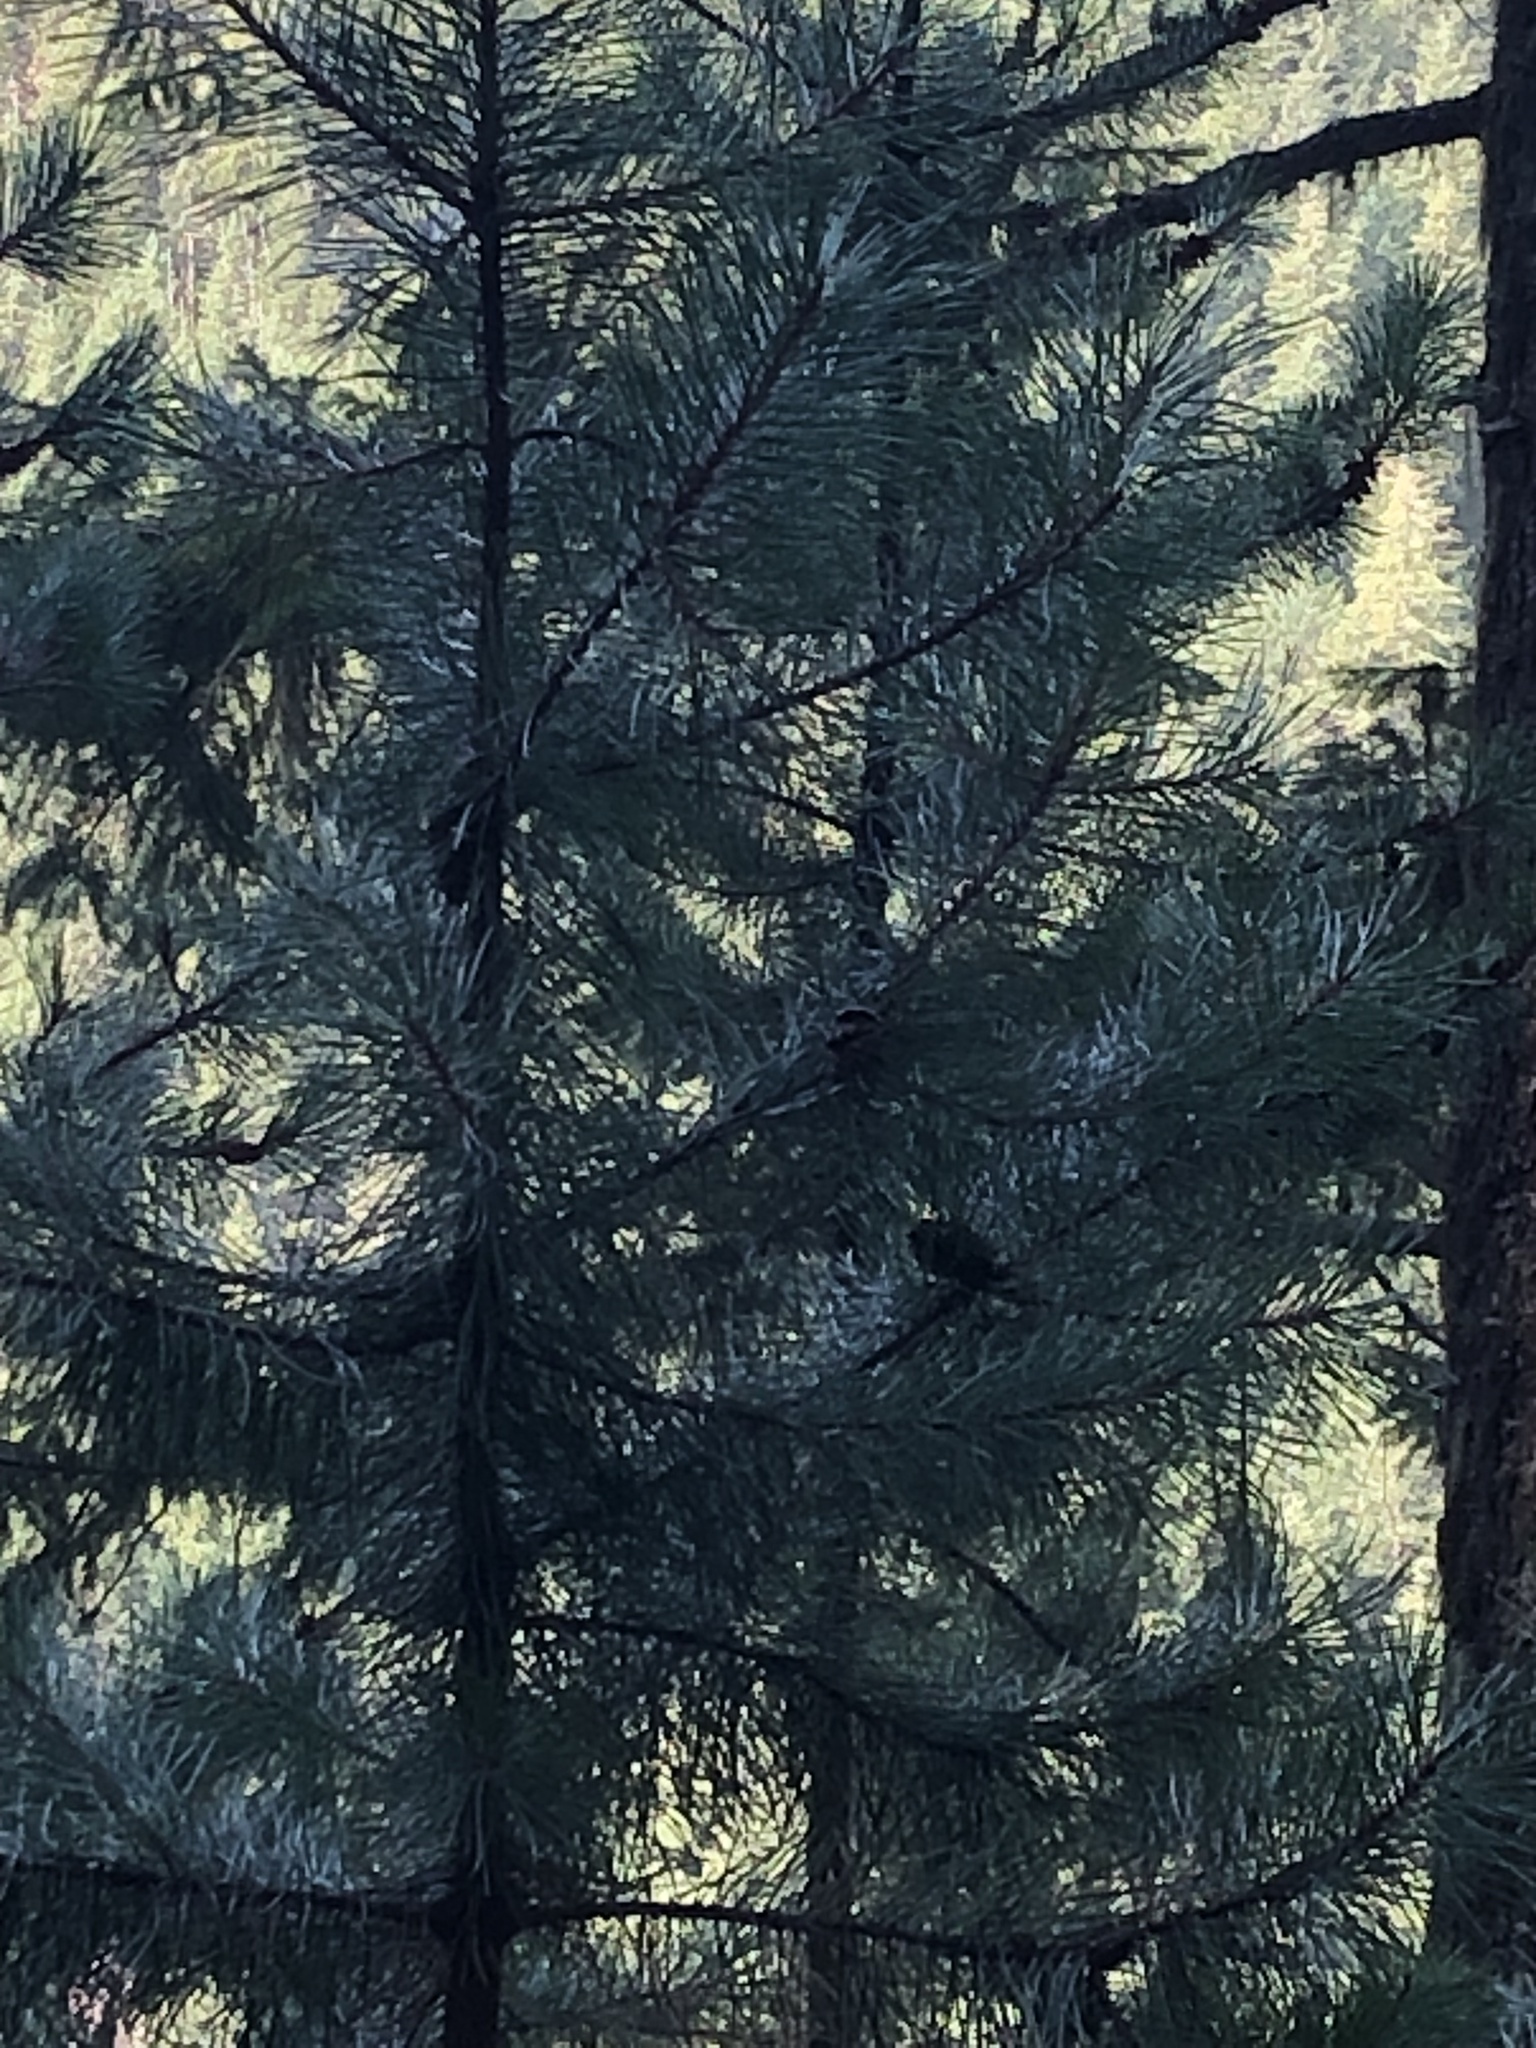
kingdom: Plantae
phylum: Tracheophyta
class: Pinopsida
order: Pinales
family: Pinaceae
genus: Pinus
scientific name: Pinus contorta
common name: Lodgepole pine
